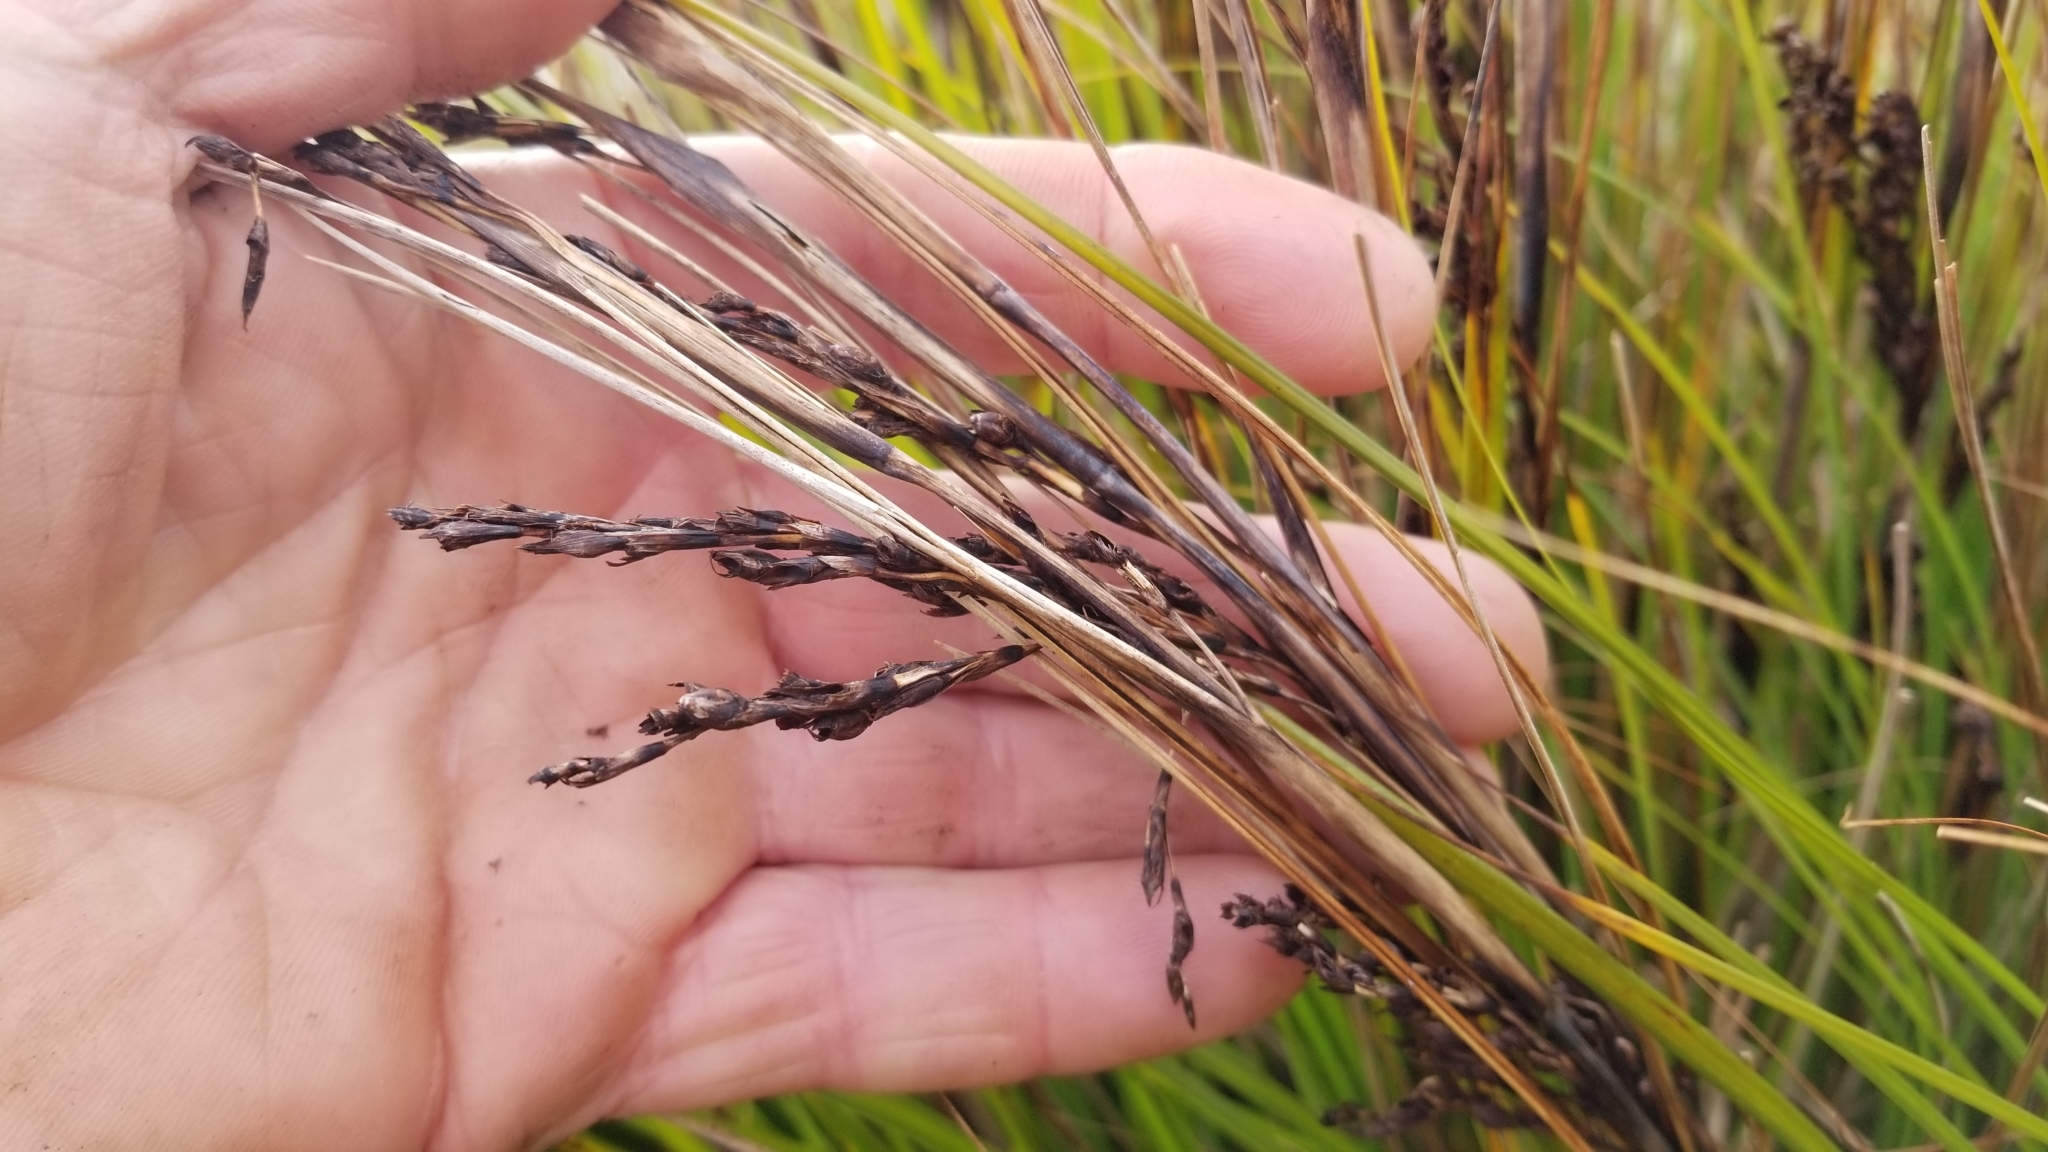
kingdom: Plantae
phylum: Tracheophyta
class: Liliopsida
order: Poales
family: Cyperaceae
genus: Gahnia
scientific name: Gahnia procera
